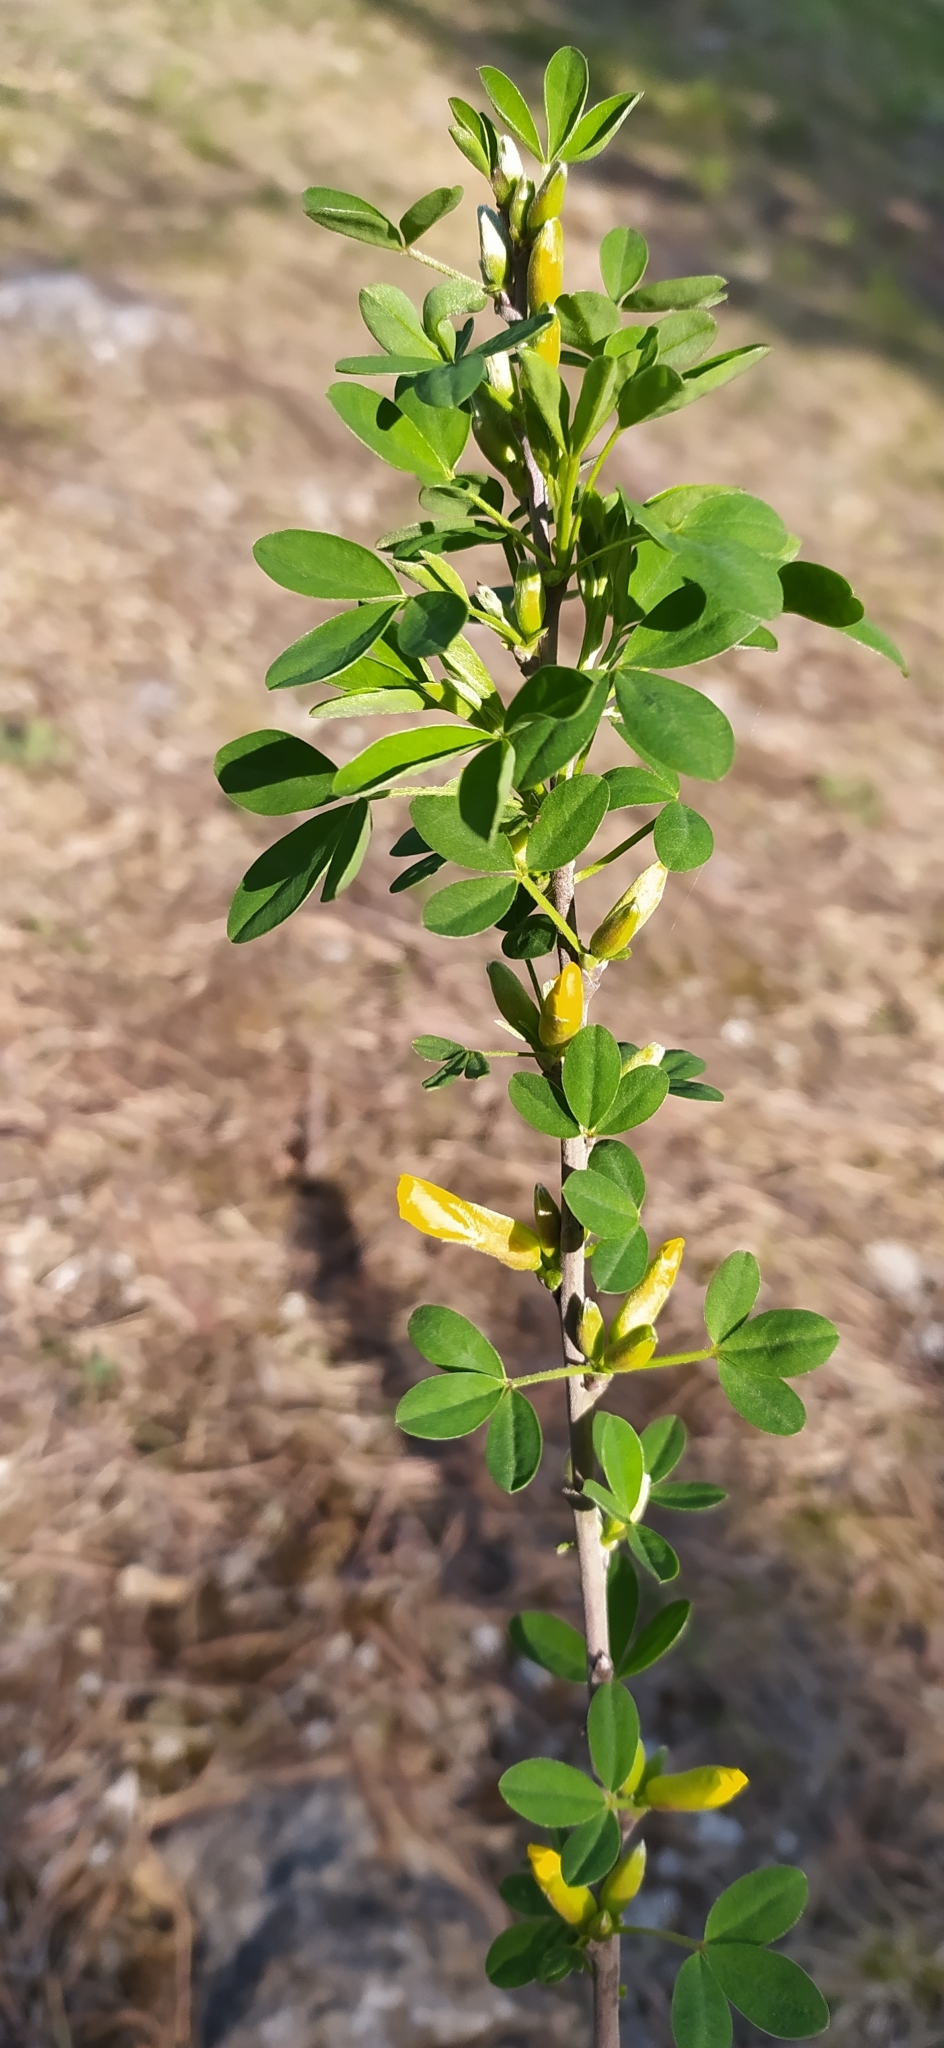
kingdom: Plantae
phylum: Tracheophyta
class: Magnoliopsida
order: Fabales
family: Fabaceae
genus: Chamaecytisus
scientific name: Chamaecytisus ruthenicus
